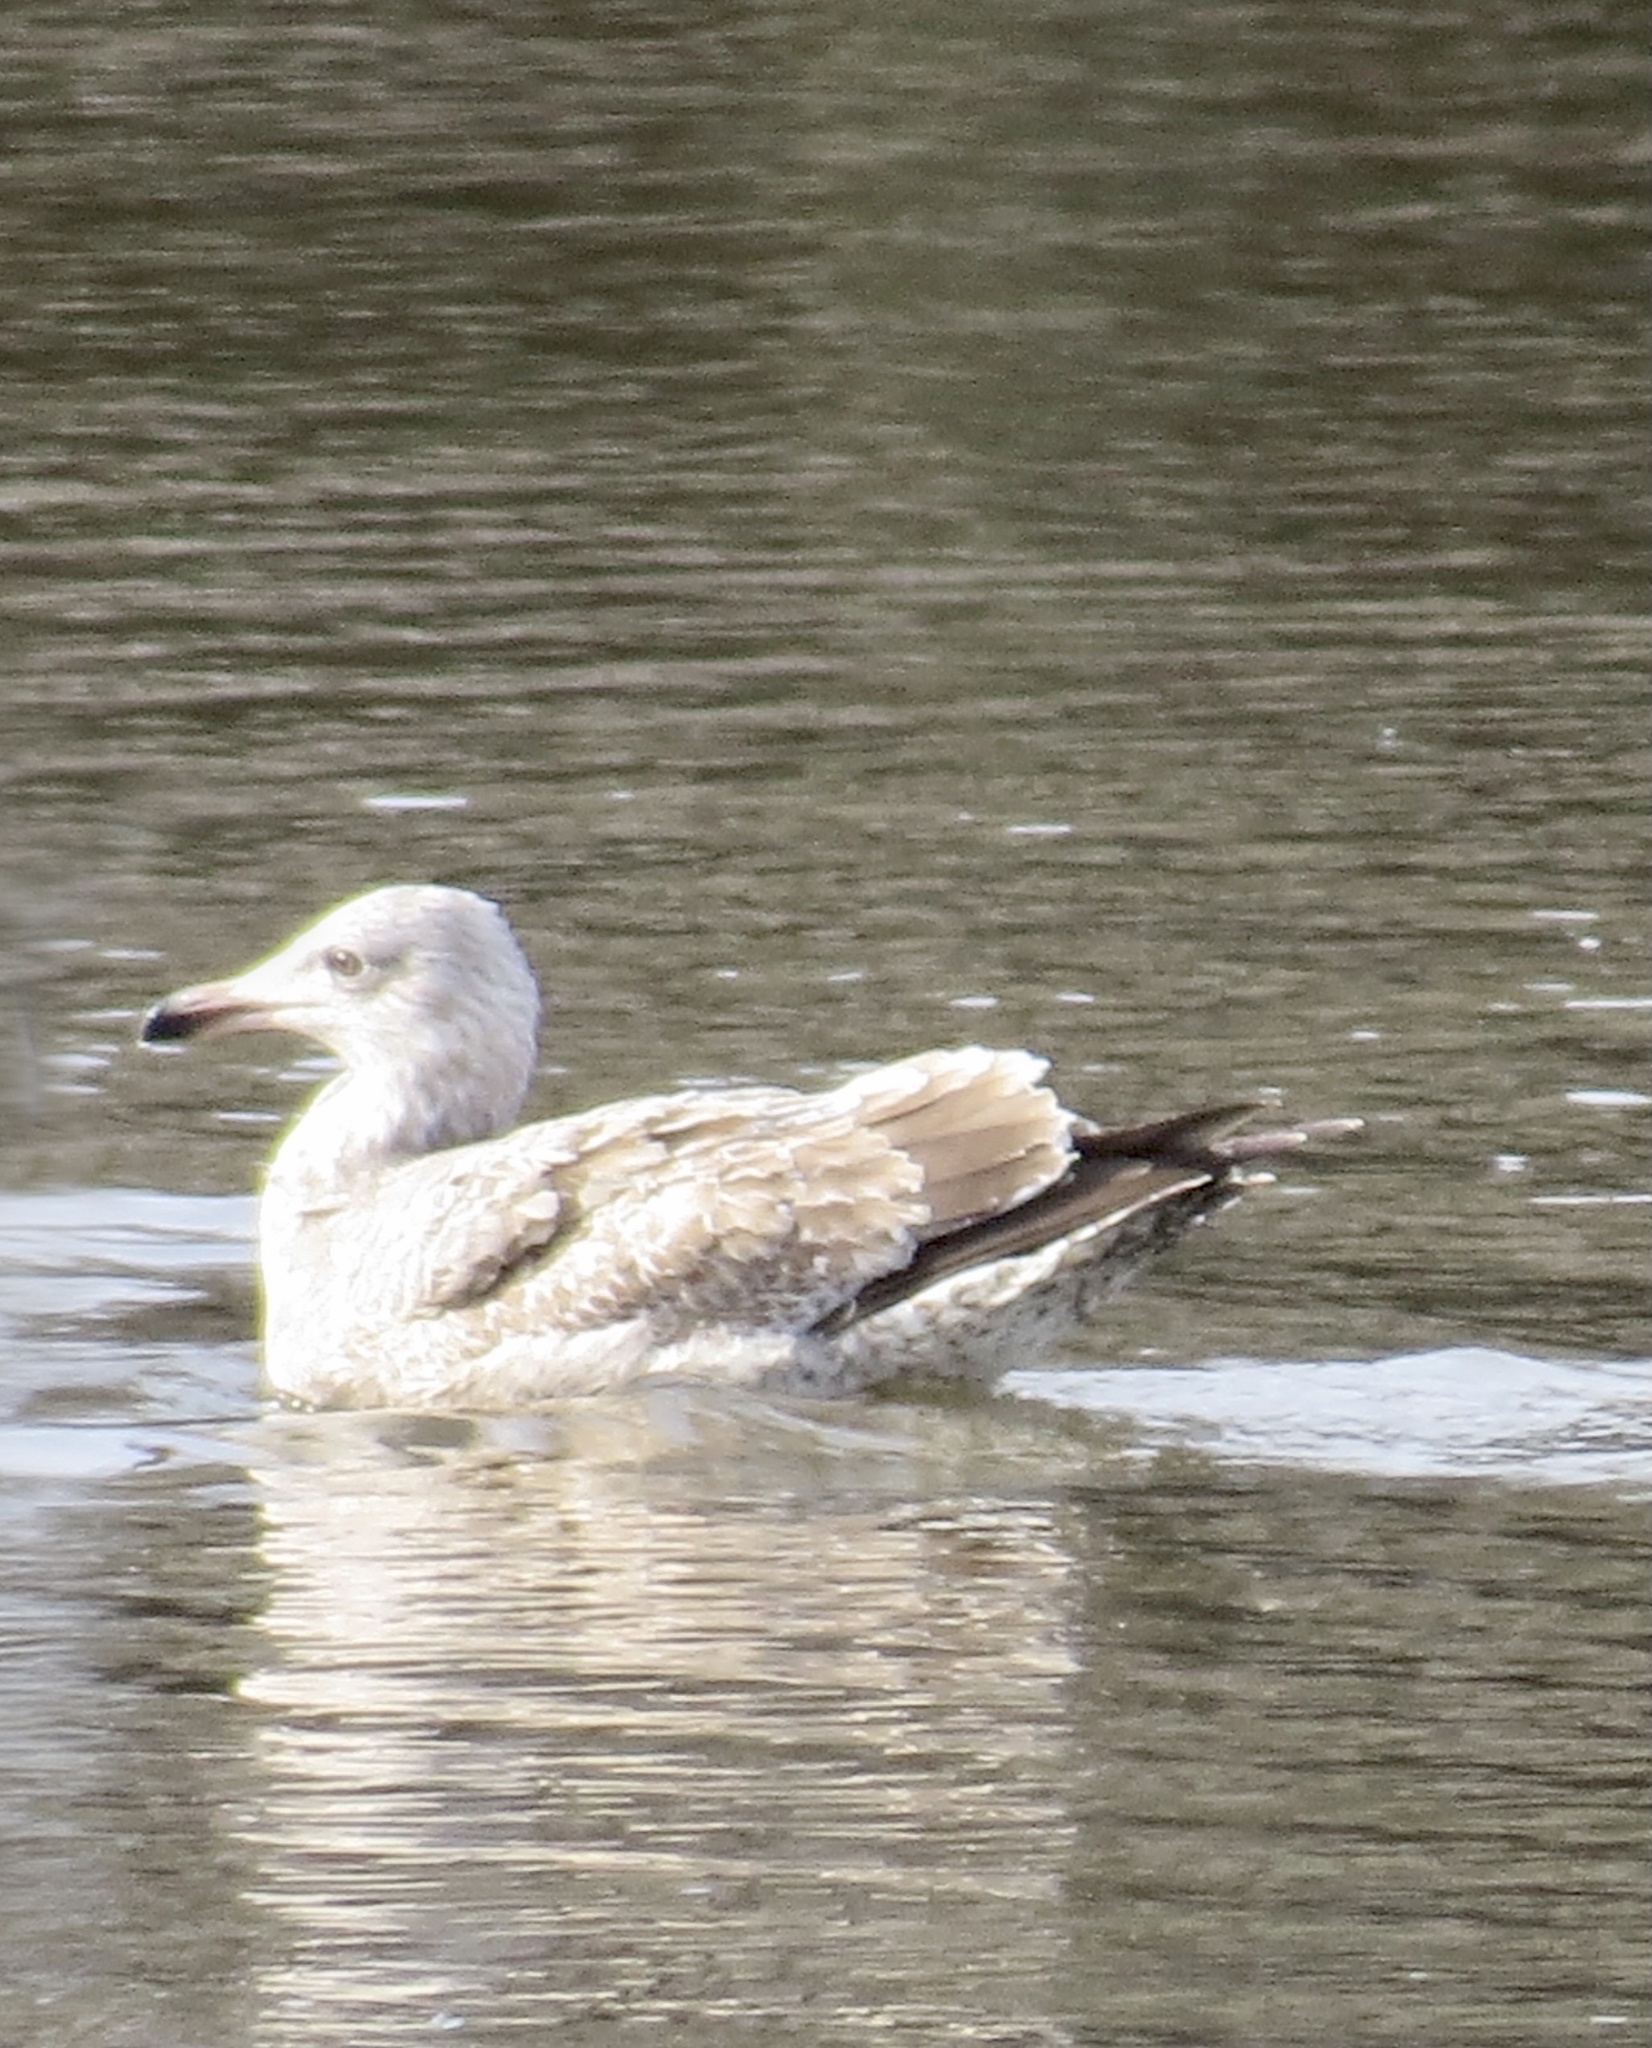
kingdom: Animalia
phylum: Chordata
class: Aves
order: Charadriiformes
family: Laridae
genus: Larus
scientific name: Larus argentatus
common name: Herring gull
